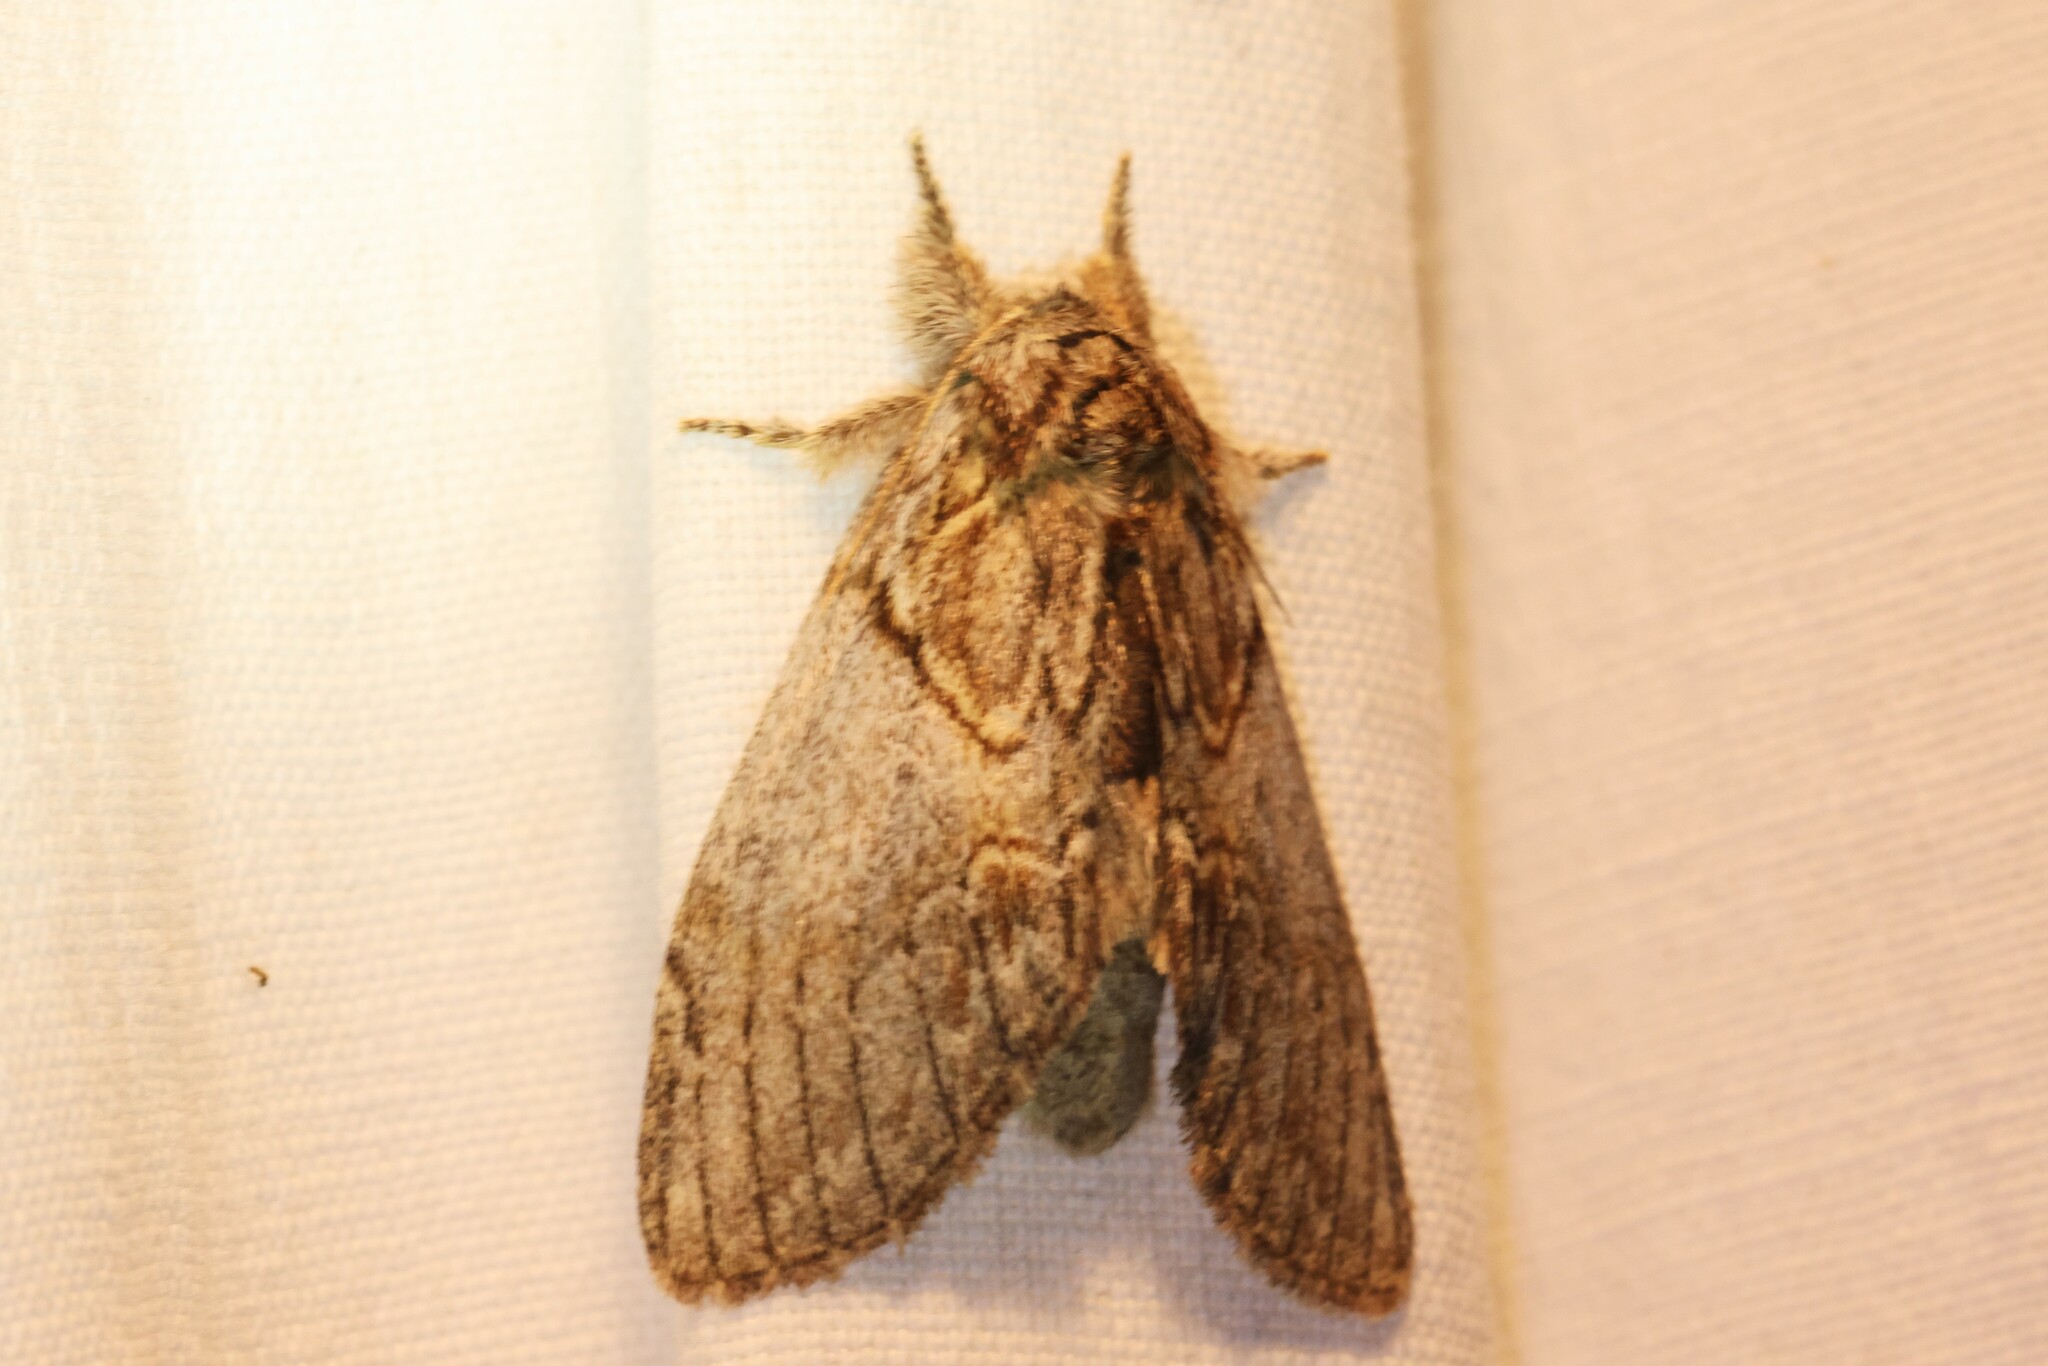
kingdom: Animalia
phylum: Arthropoda
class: Insecta
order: Lepidoptera
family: Notodontidae
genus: Peridea
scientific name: Peridea basitriens
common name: Oval-based prominent
